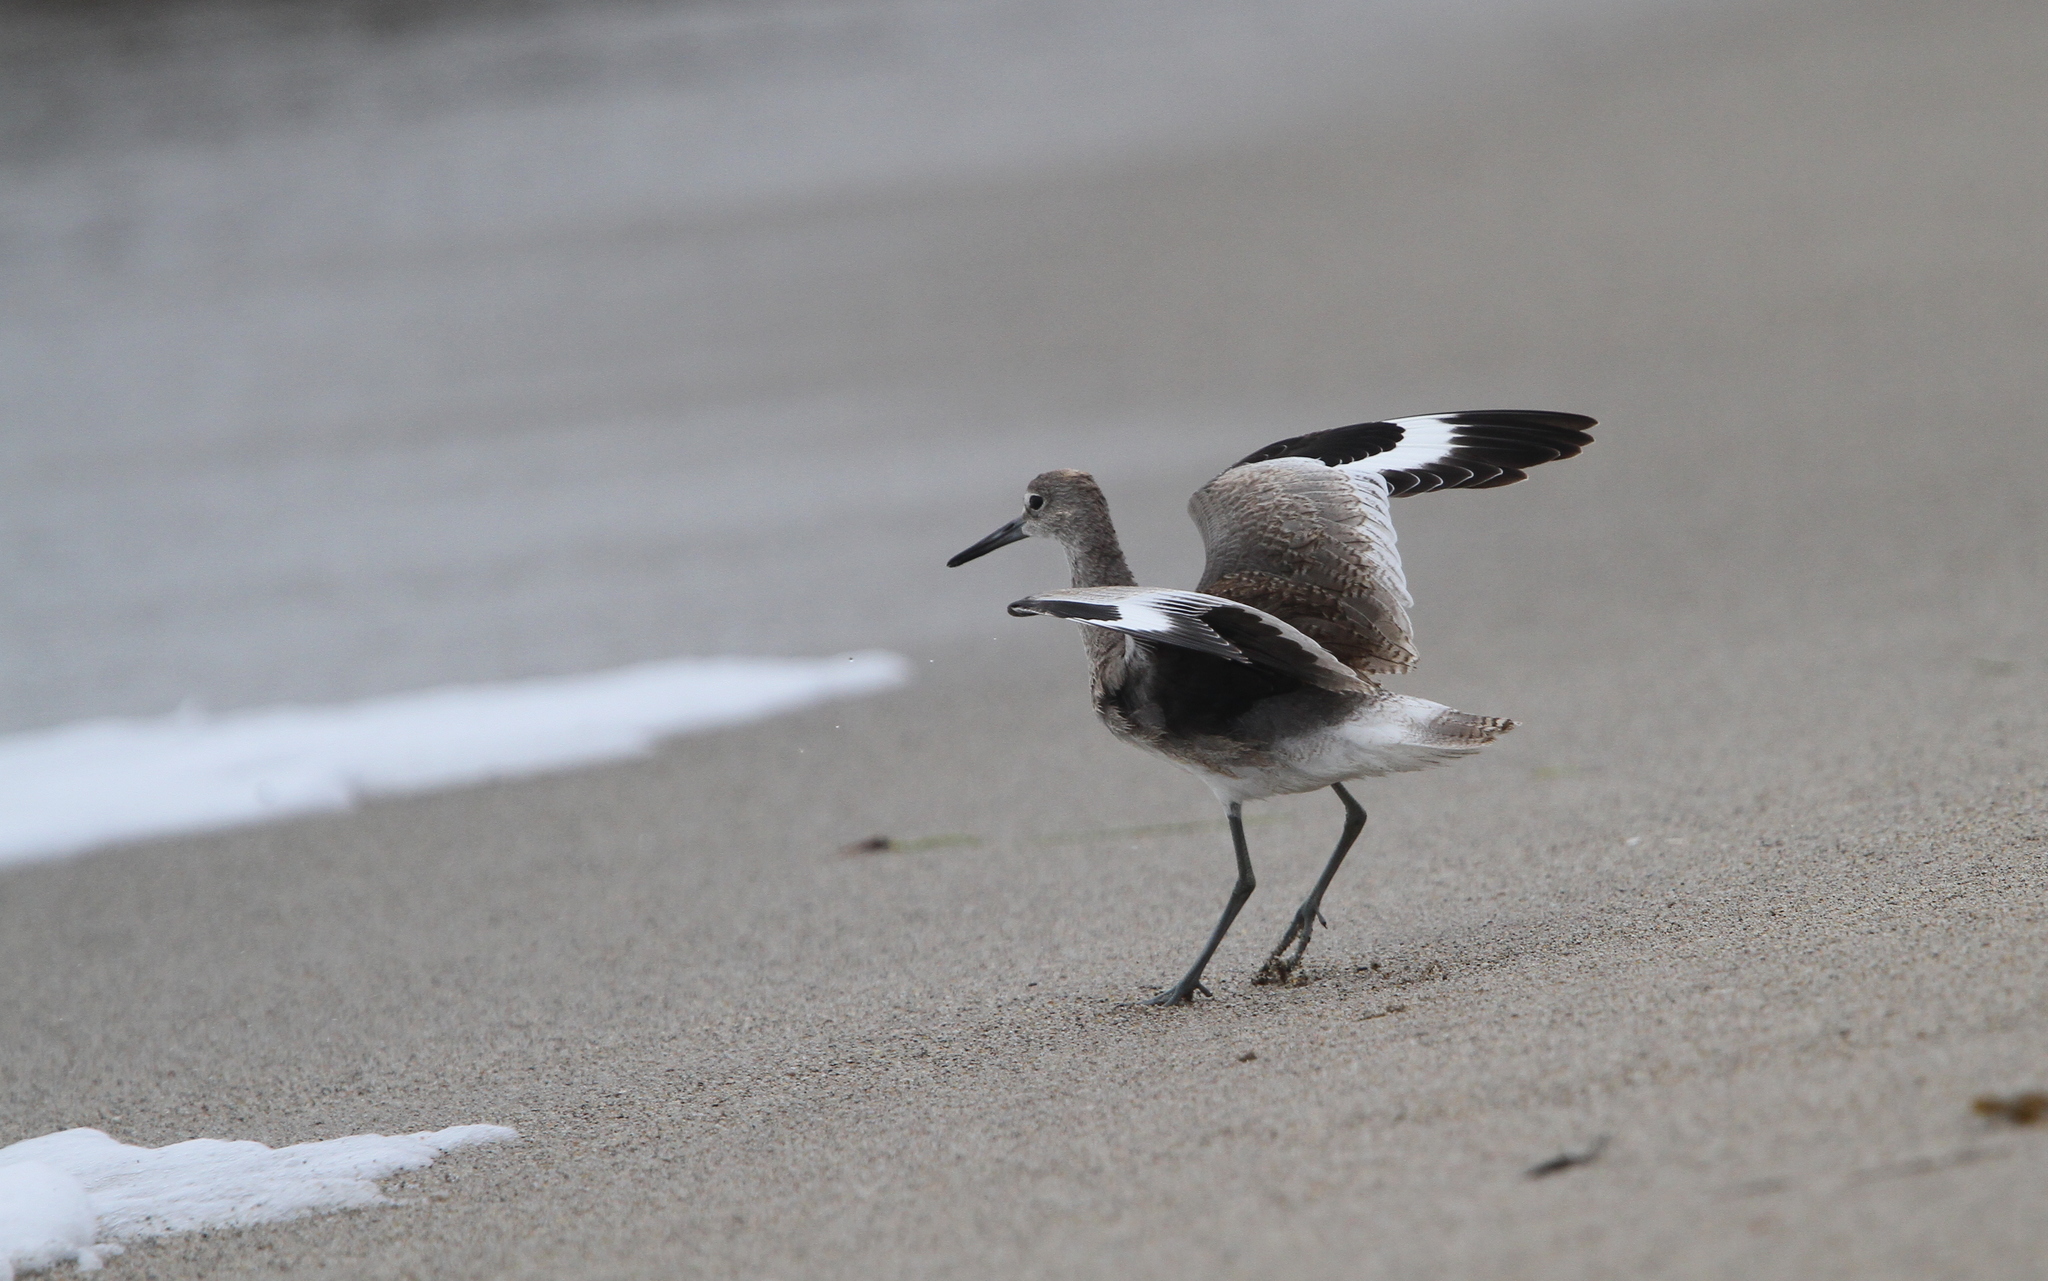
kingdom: Animalia
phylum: Chordata
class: Aves
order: Charadriiformes
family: Scolopacidae
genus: Tringa
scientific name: Tringa semipalmata
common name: Willet
